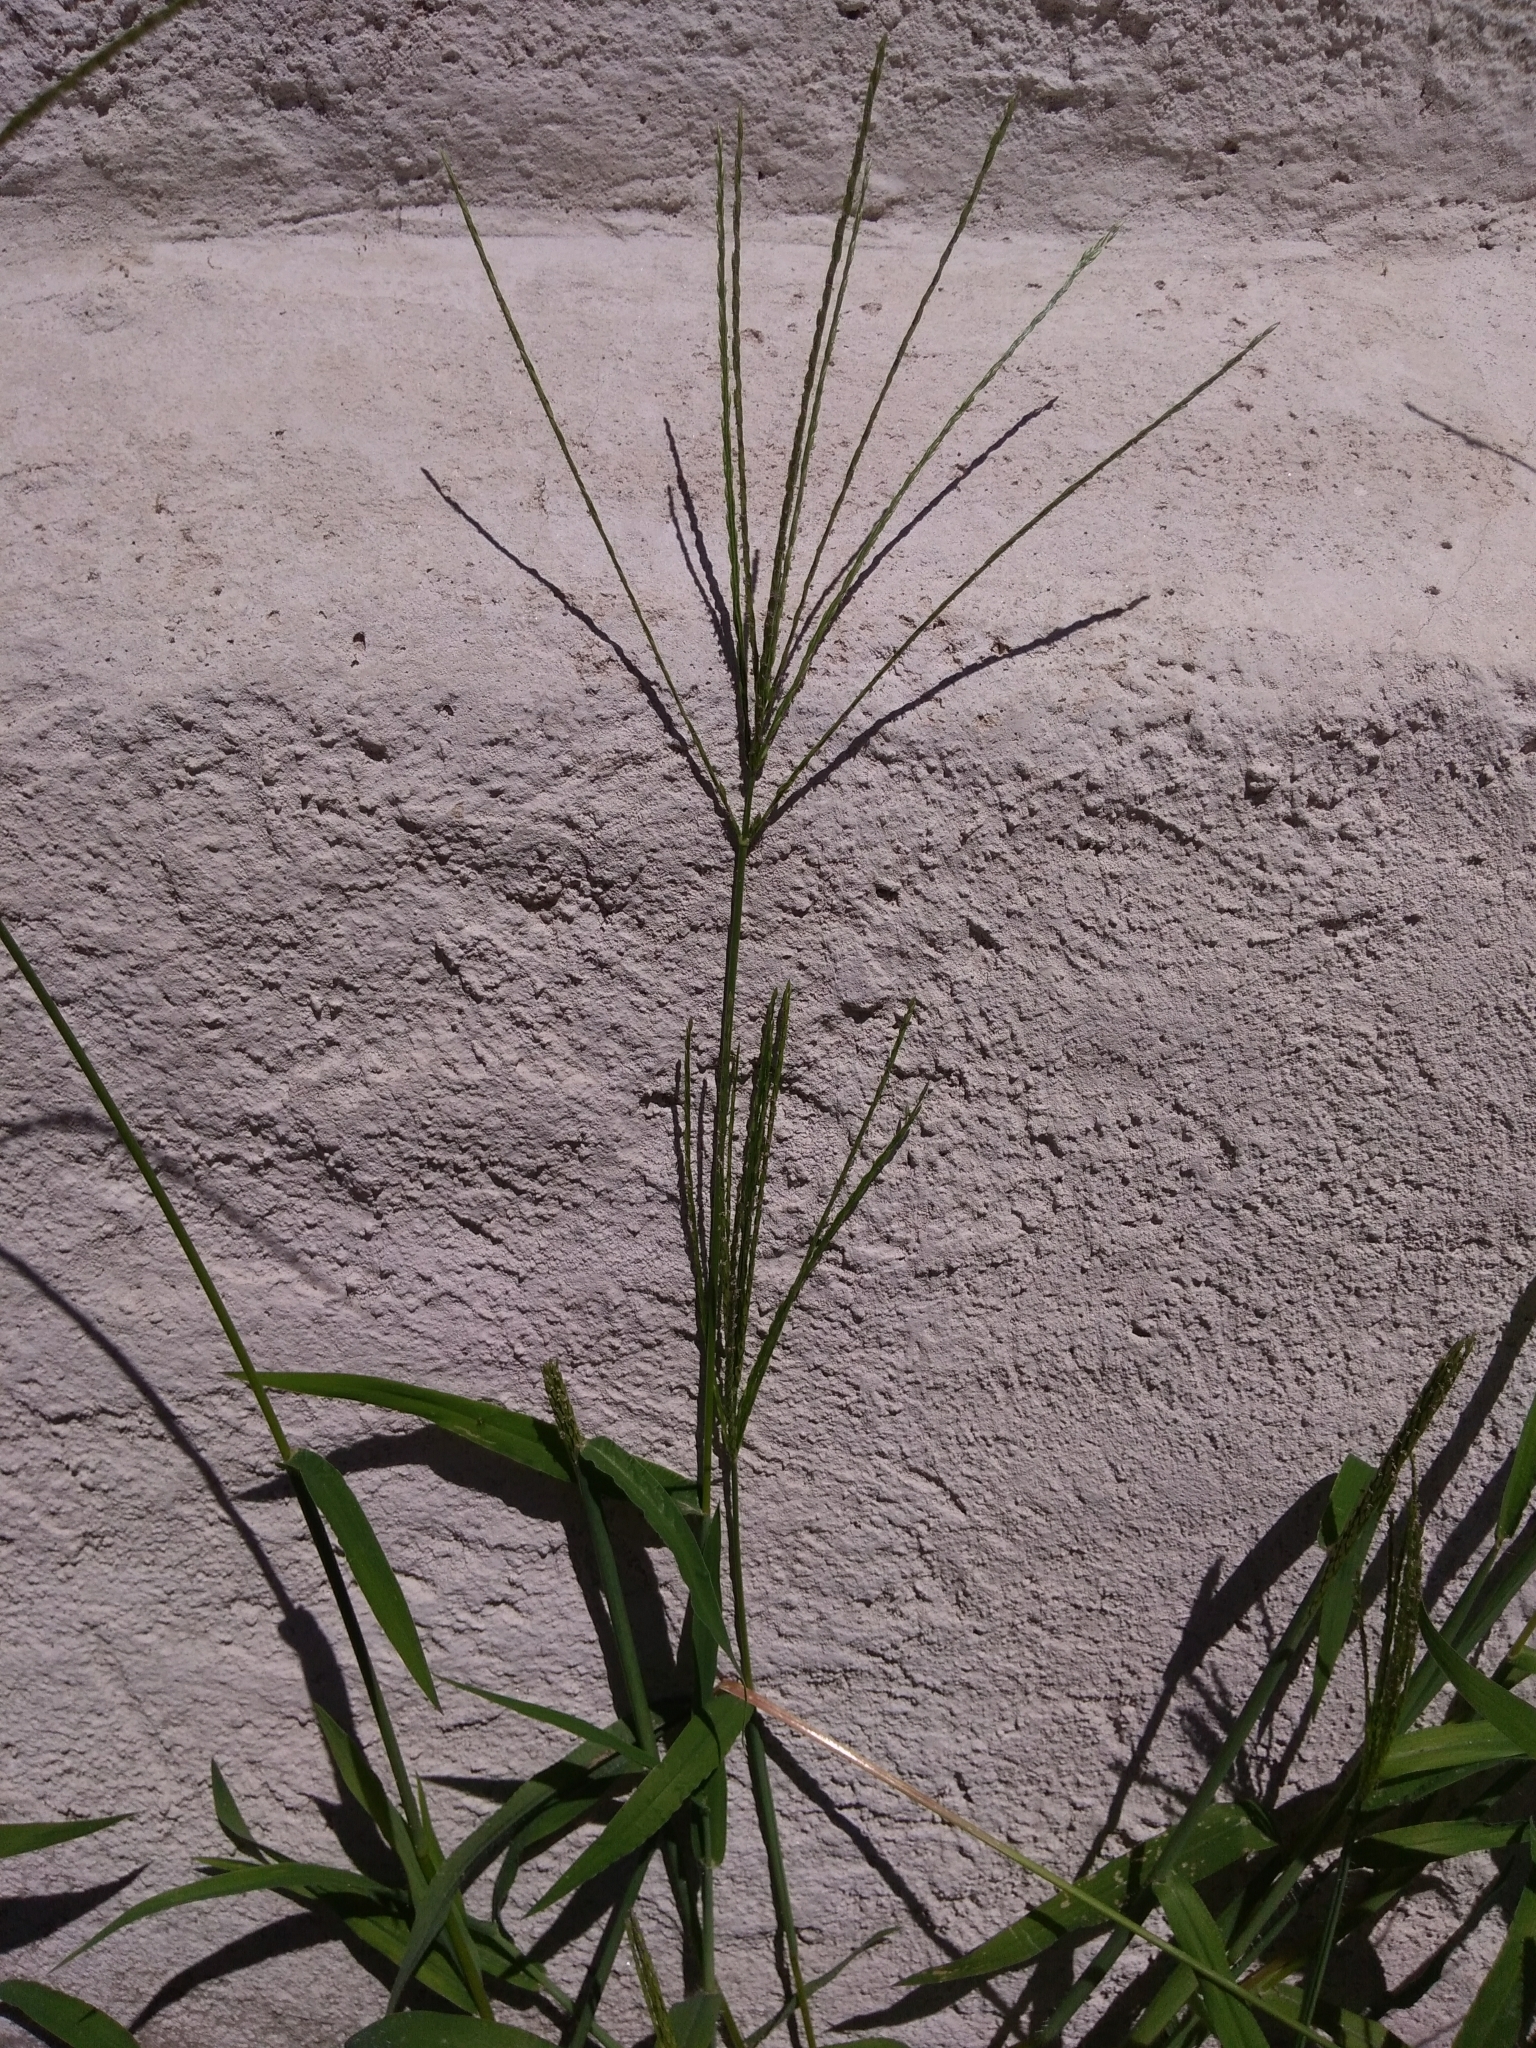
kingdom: Plantae
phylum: Tracheophyta
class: Liliopsida
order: Poales
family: Poaceae
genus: Digitaria
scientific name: Digitaria sanguinalis
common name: Hairy crabgrass
